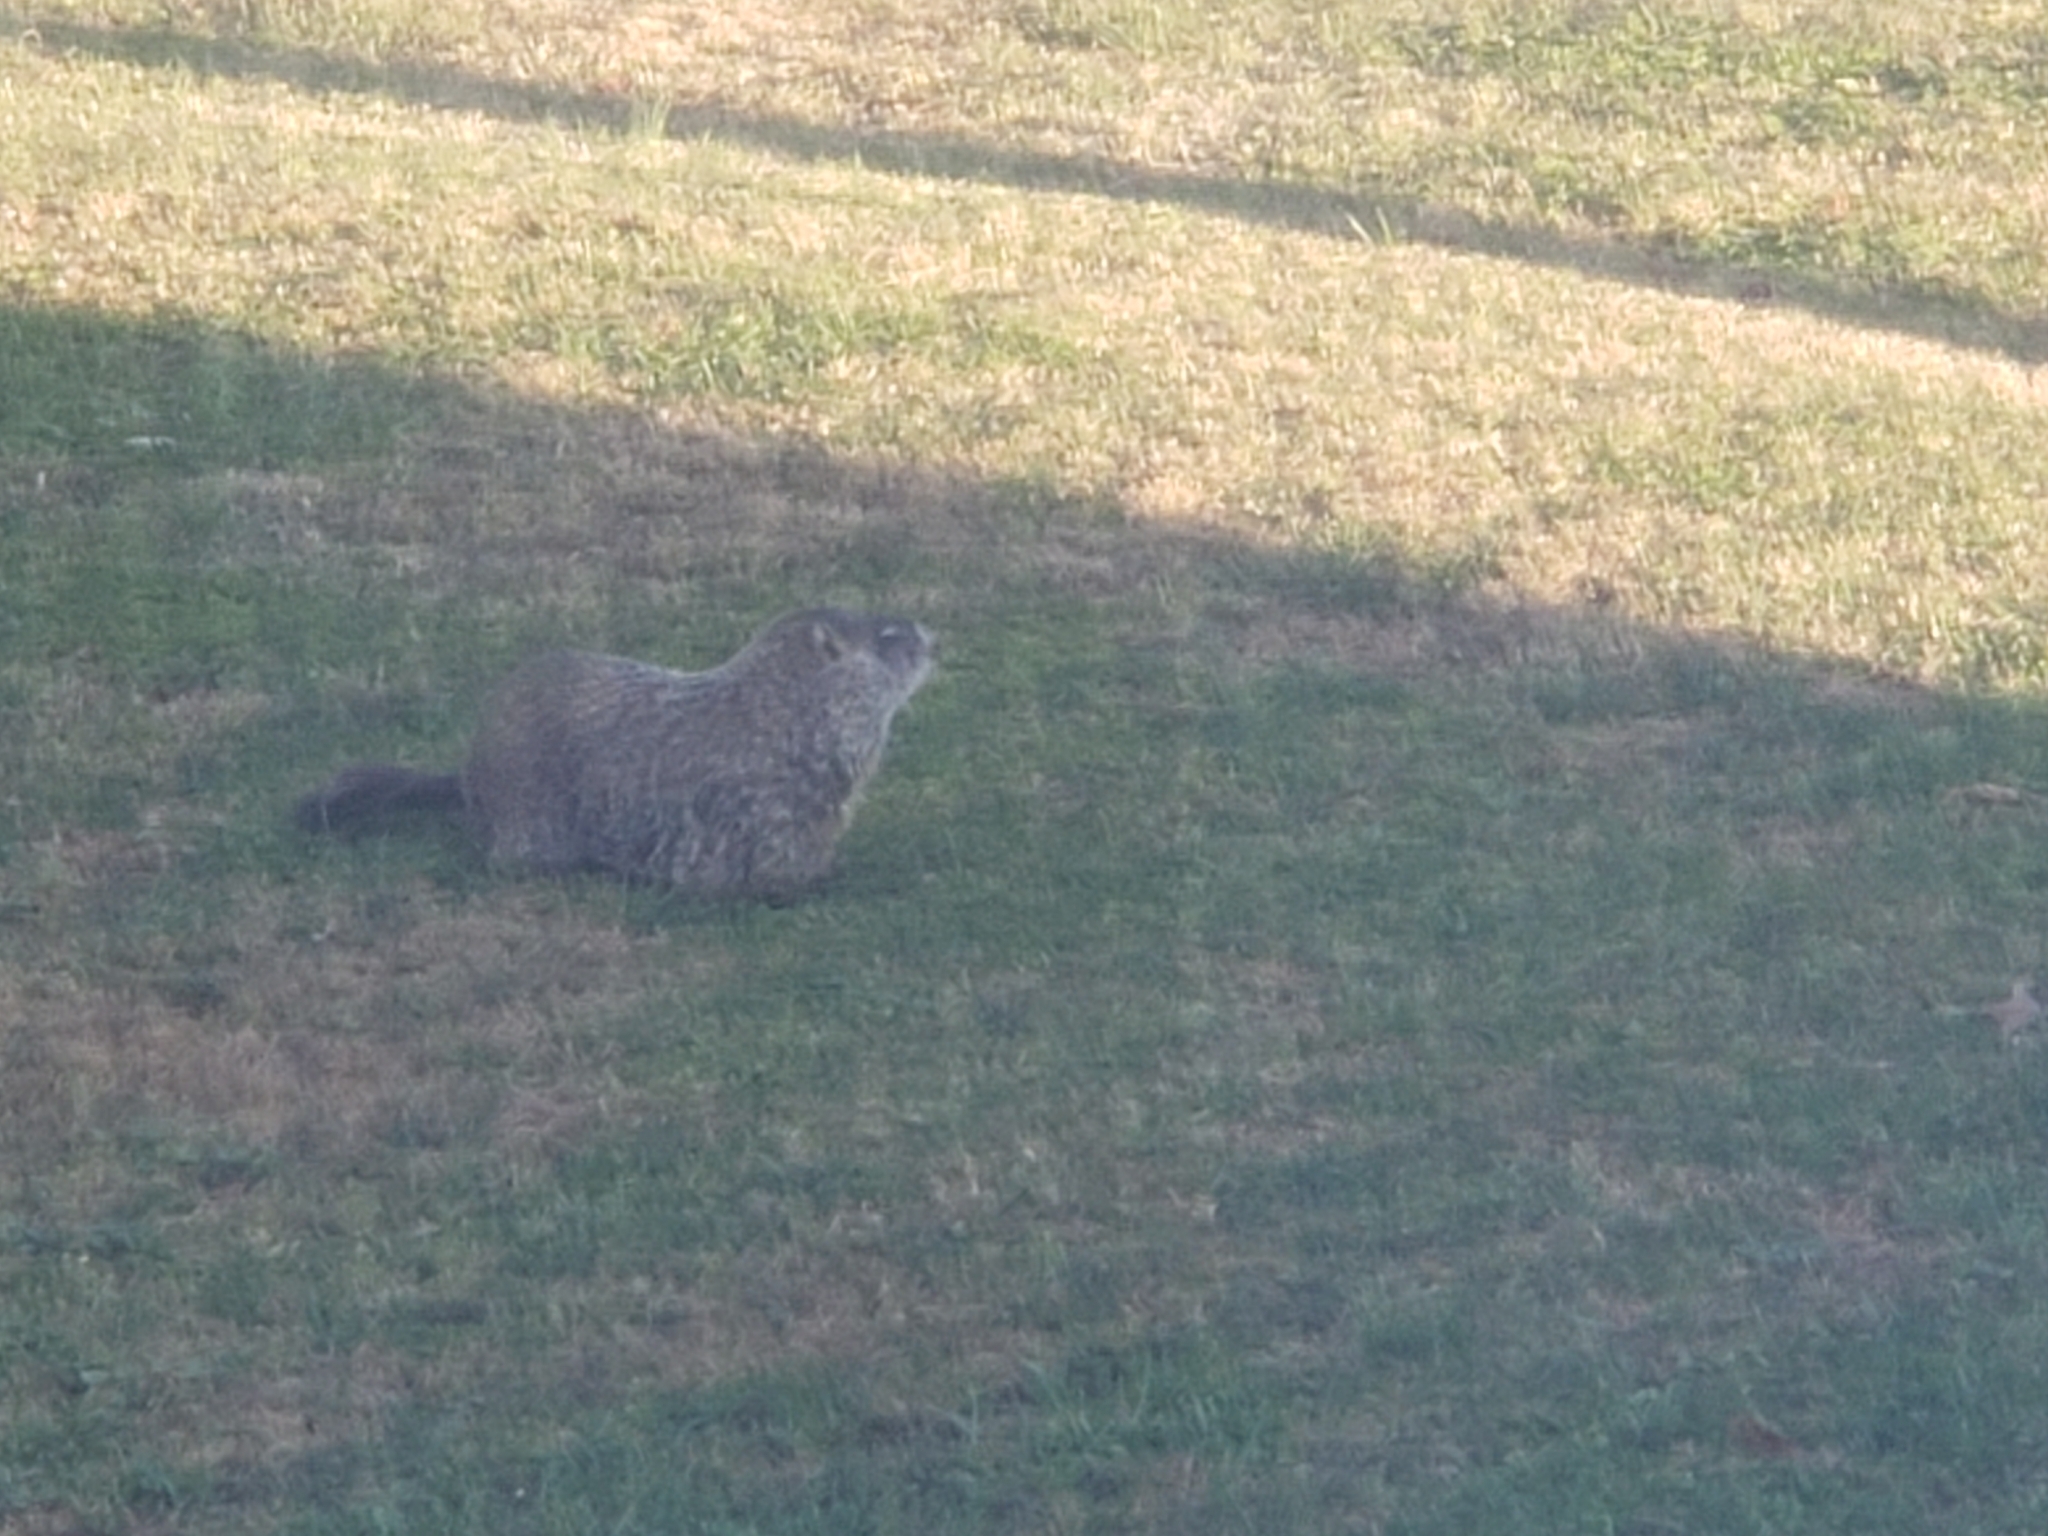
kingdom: Animalia
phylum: Chordata
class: Mammalia
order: Rodentia
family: Sciuridae
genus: Marmota
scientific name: Marmota monax
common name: Groundhog
